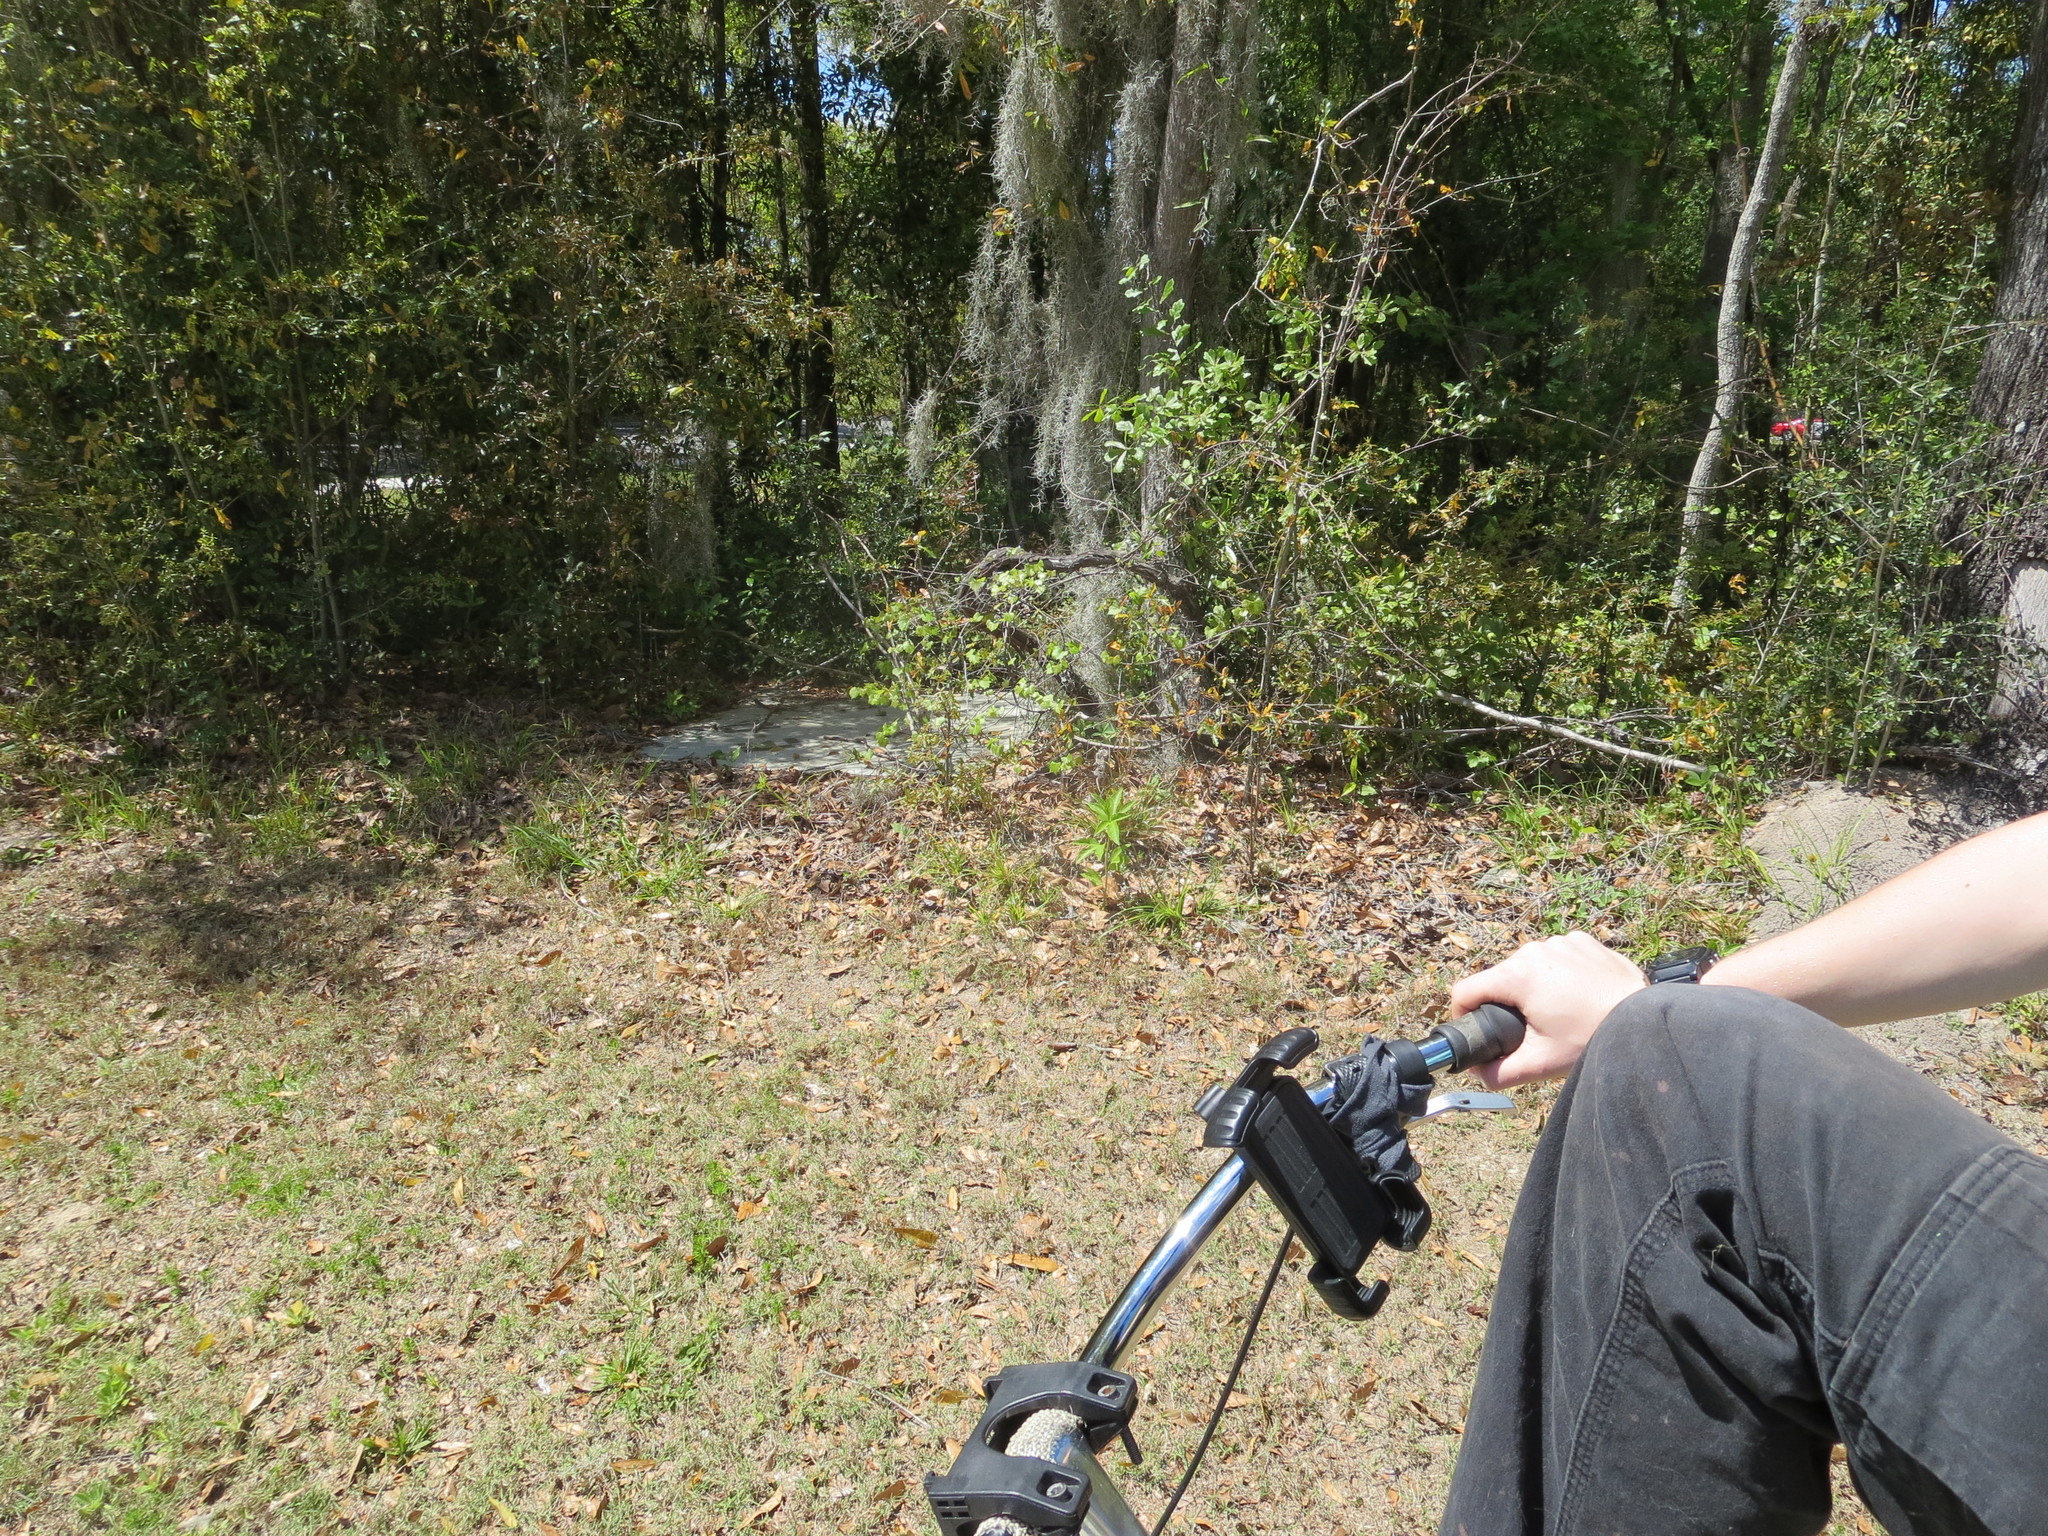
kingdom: Plantae
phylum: Tracheophyta
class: Magnoliopsida
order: Malpighiales
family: Passifloraceae
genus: Passiflora
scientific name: Passiflora incarnata
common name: Apricot-vine
